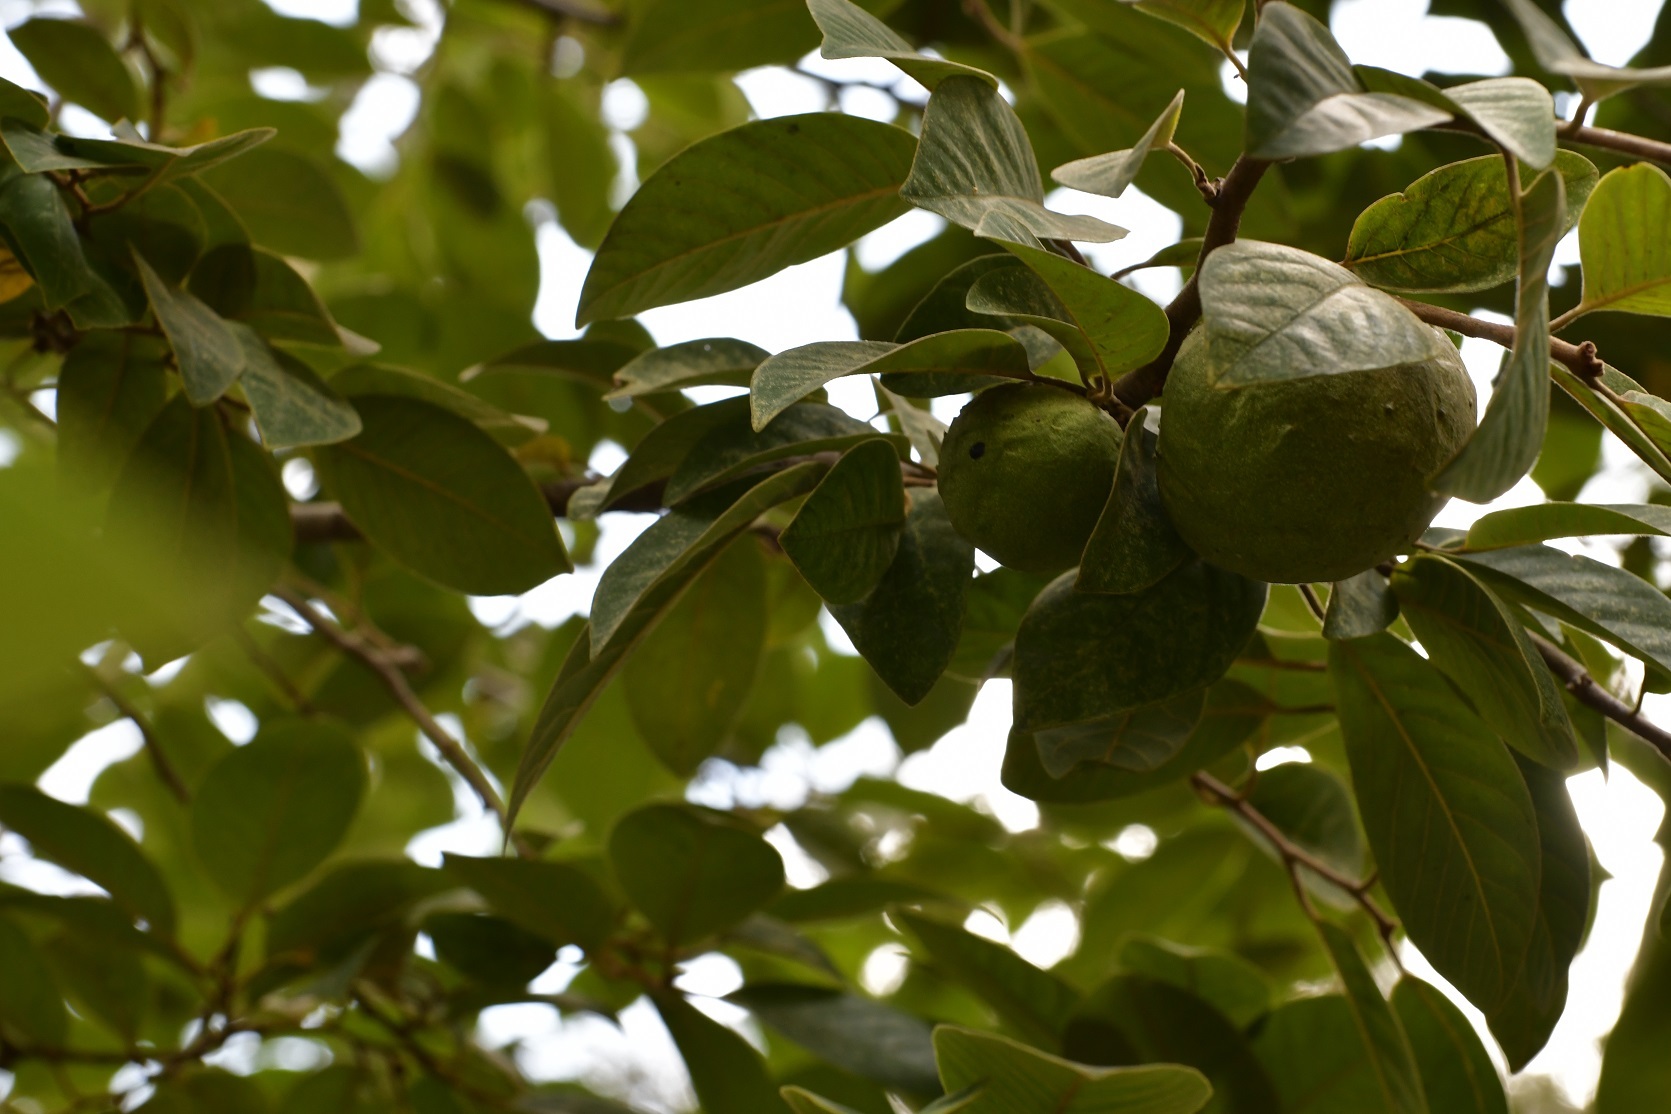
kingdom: Plantae
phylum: Tracheophyta
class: Magnoliopsida
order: Magnoliales
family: Annonaceae
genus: Annona
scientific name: Annona cherimola
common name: Cherimoya
